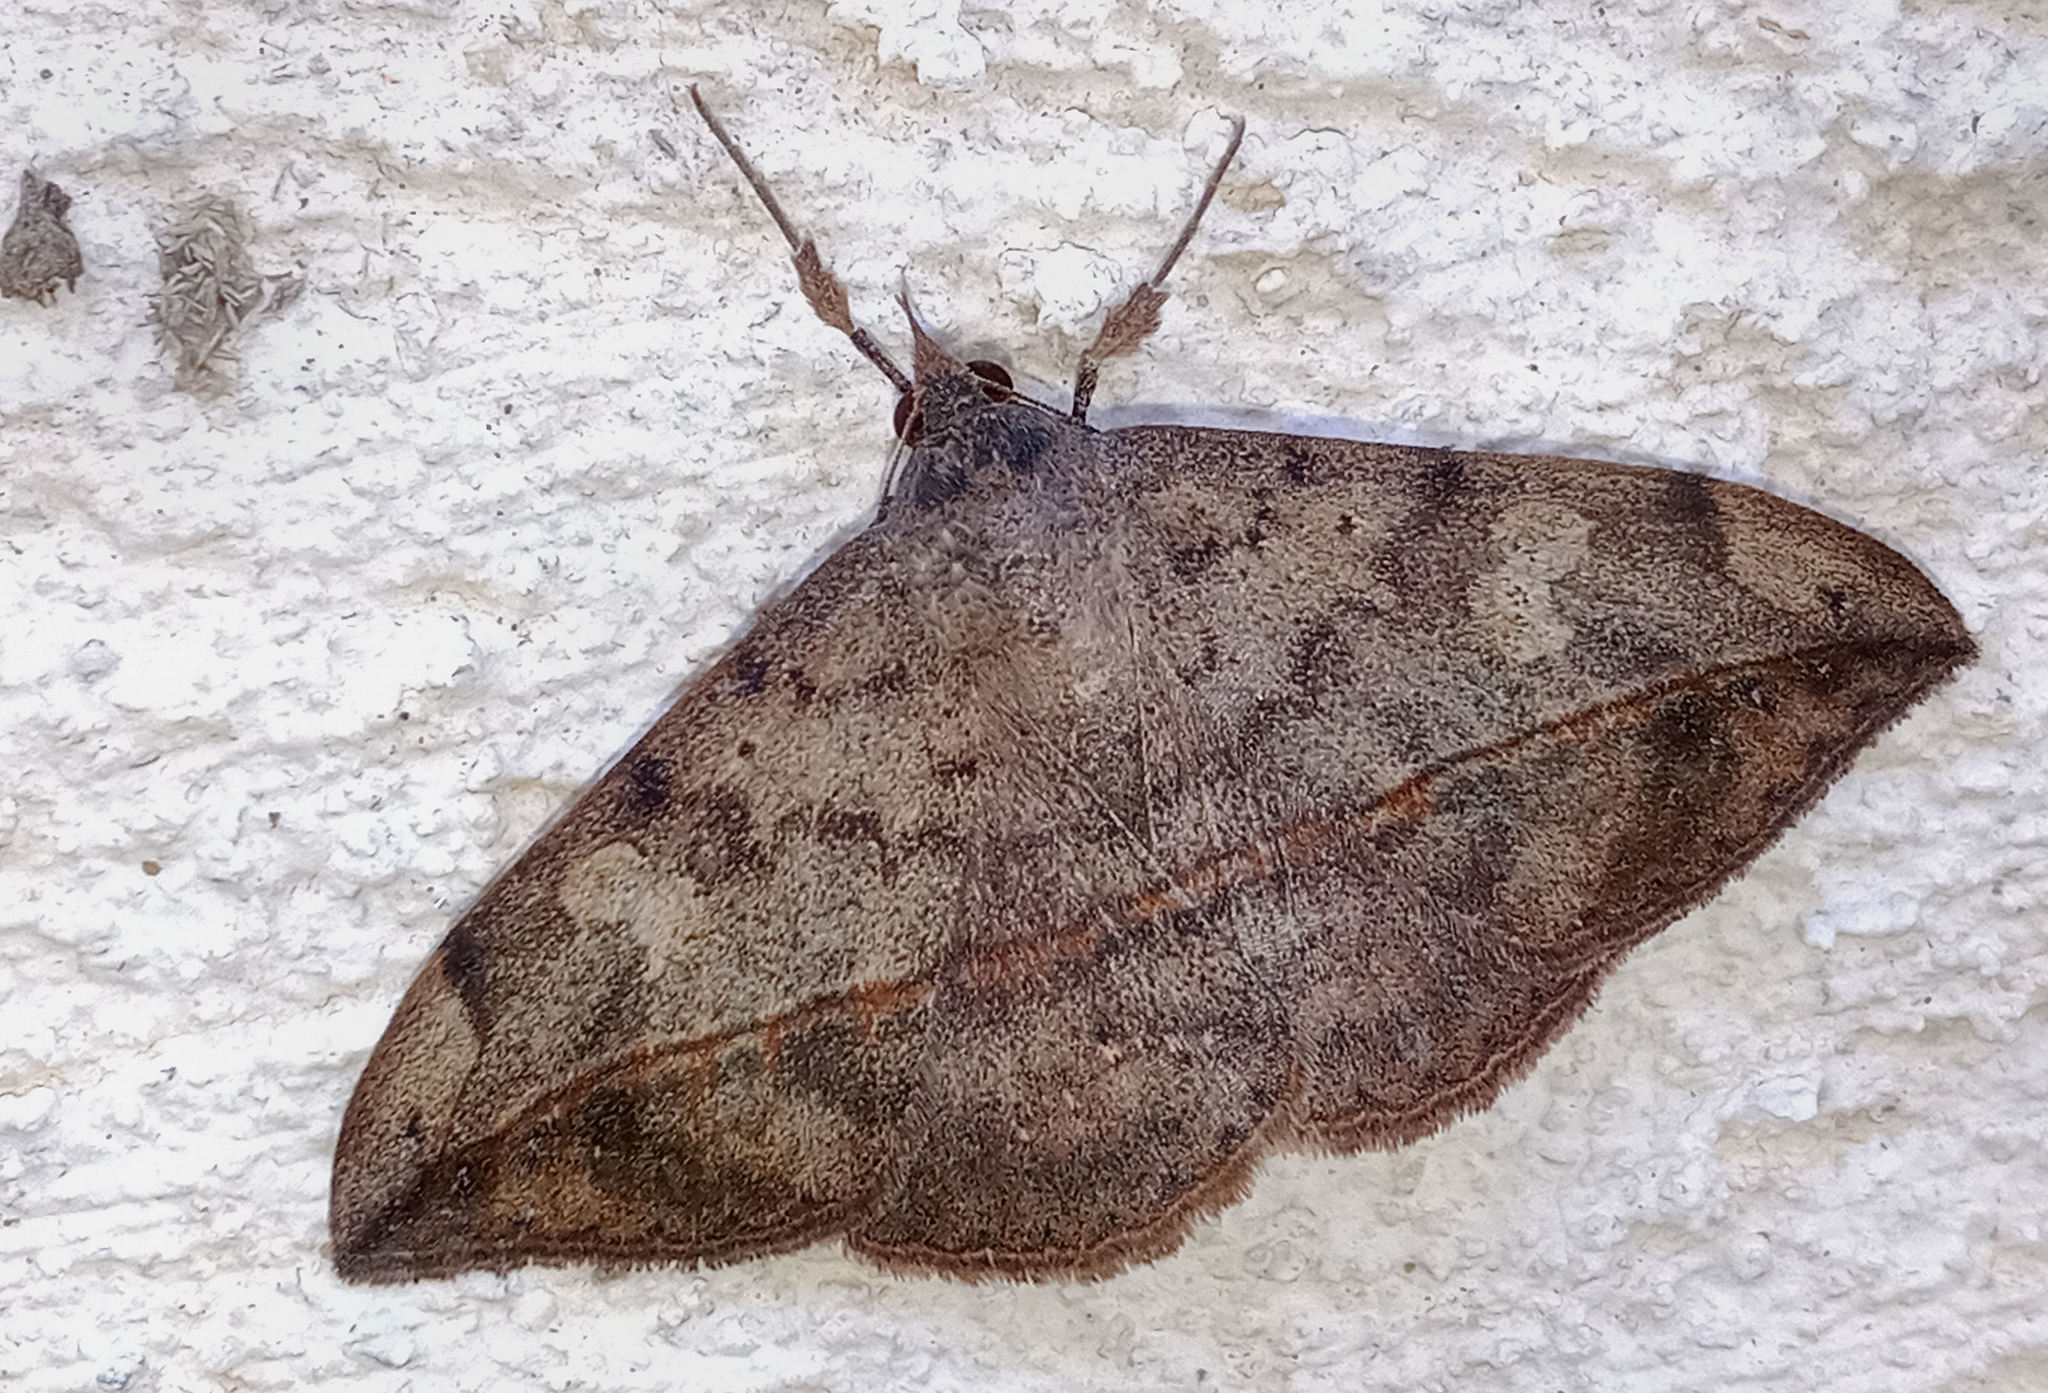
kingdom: Animalia
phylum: Arthropoda
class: Insecta
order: Lepidoptera
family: Erebidae
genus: Anticarsia
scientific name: Anticarsia gemmatalis
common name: Cutworm moth
